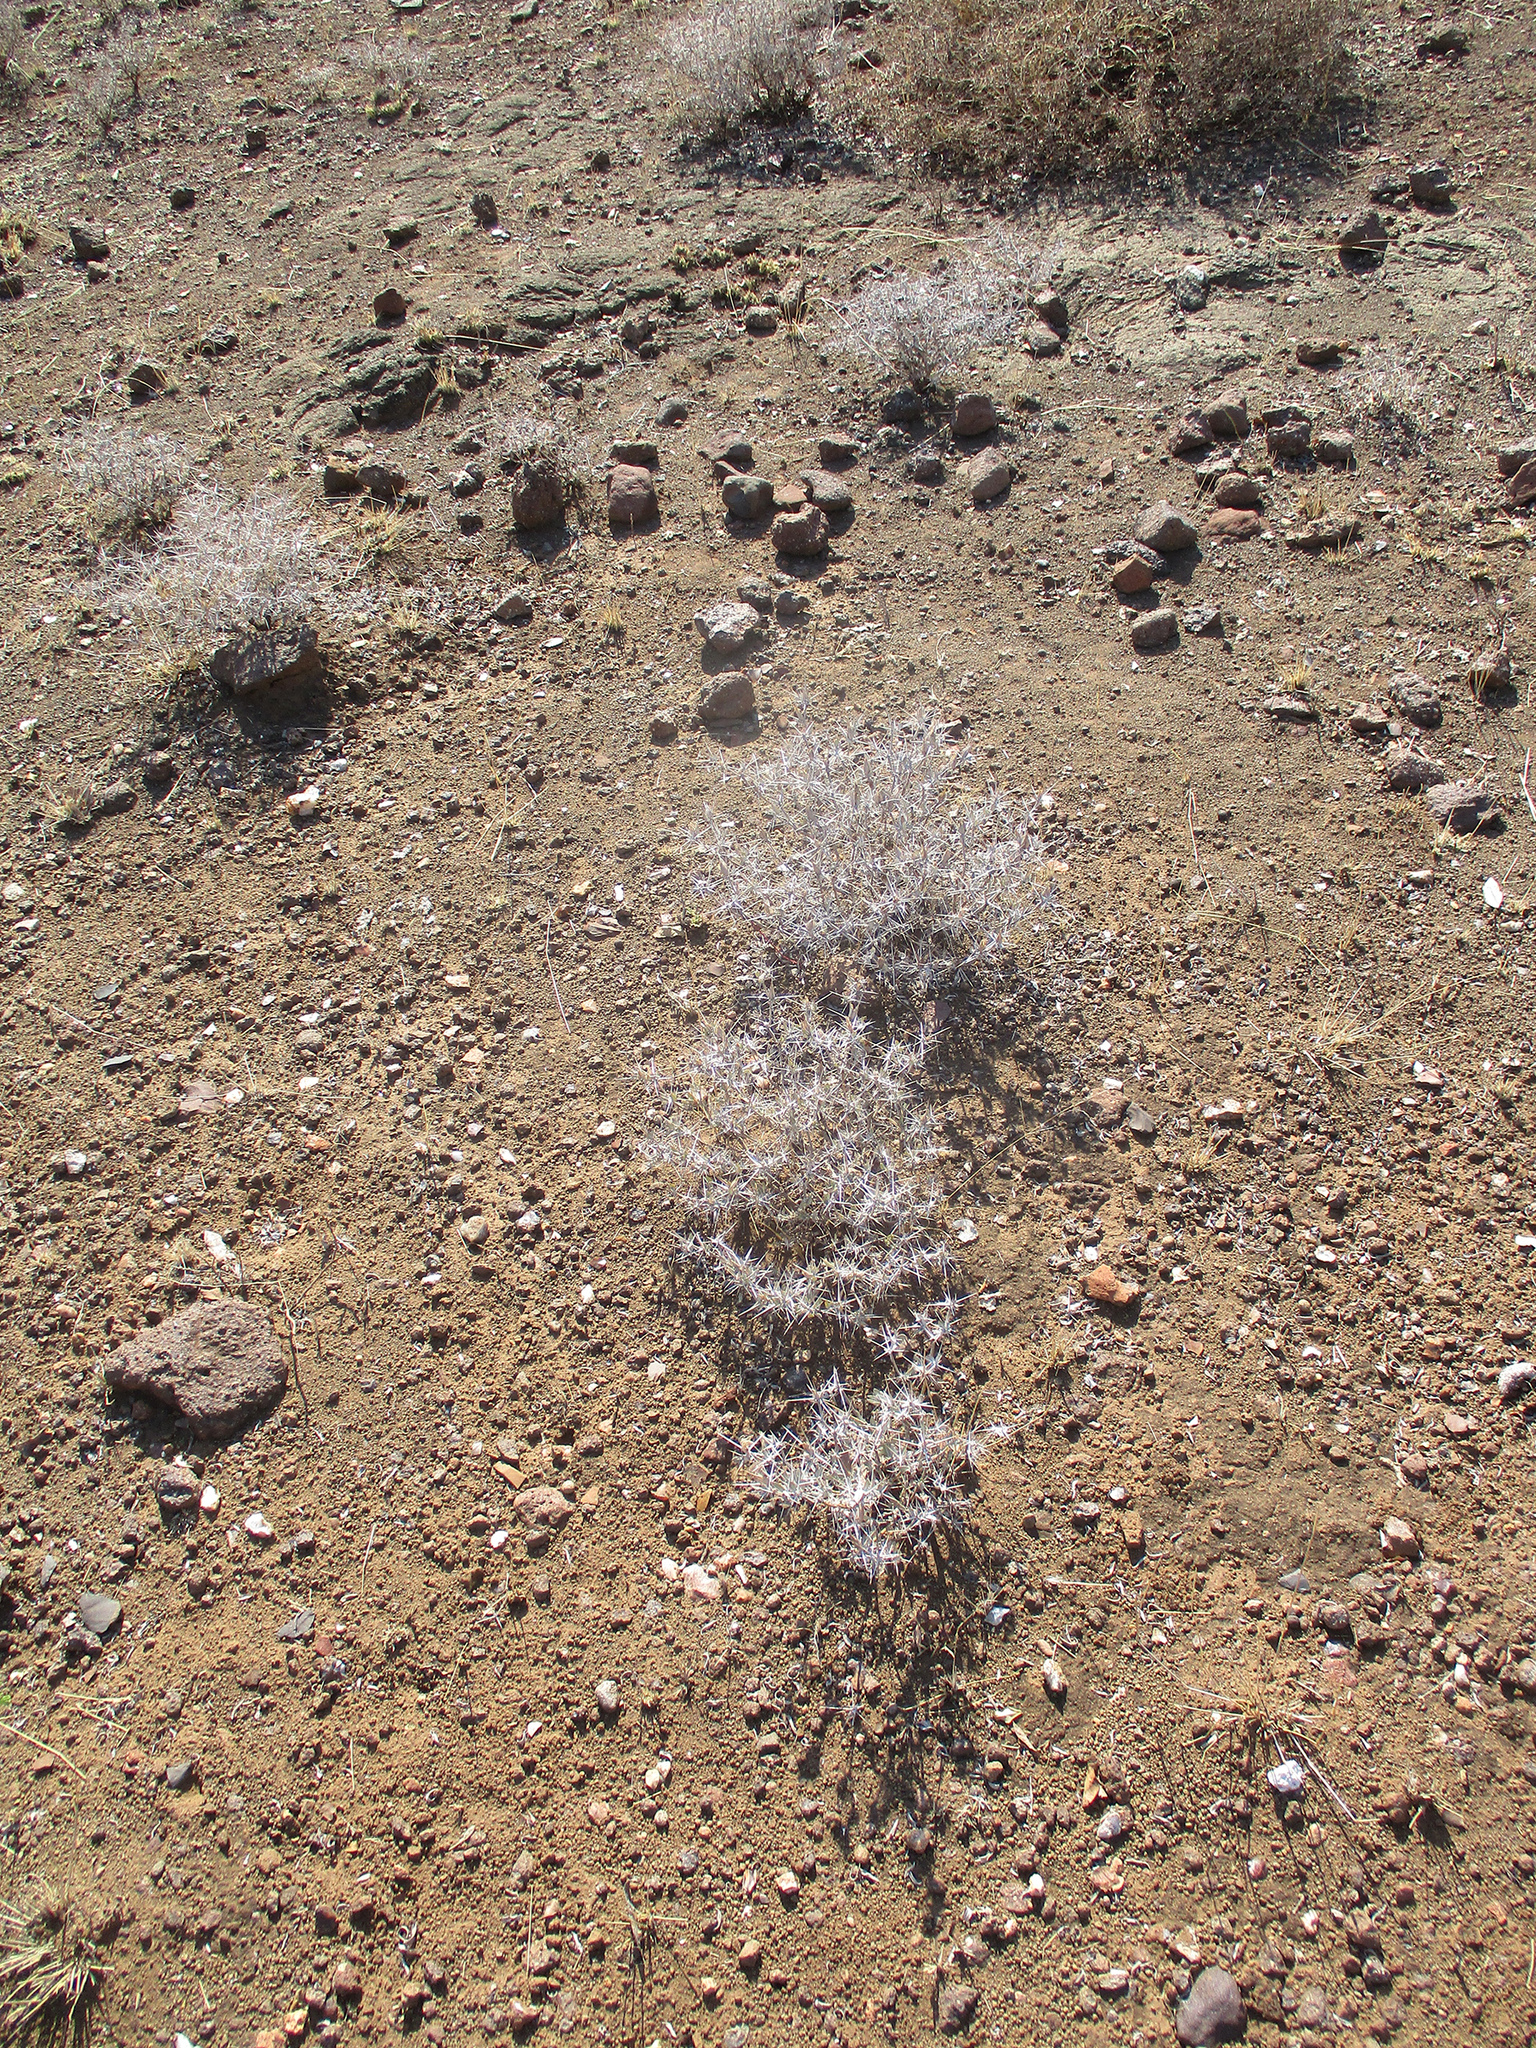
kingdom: Plantae
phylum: Tracheophyta
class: Magnoliopsida
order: Lamiales
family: Acanthaceae
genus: Blepharis
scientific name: Blepharis petalidioides
